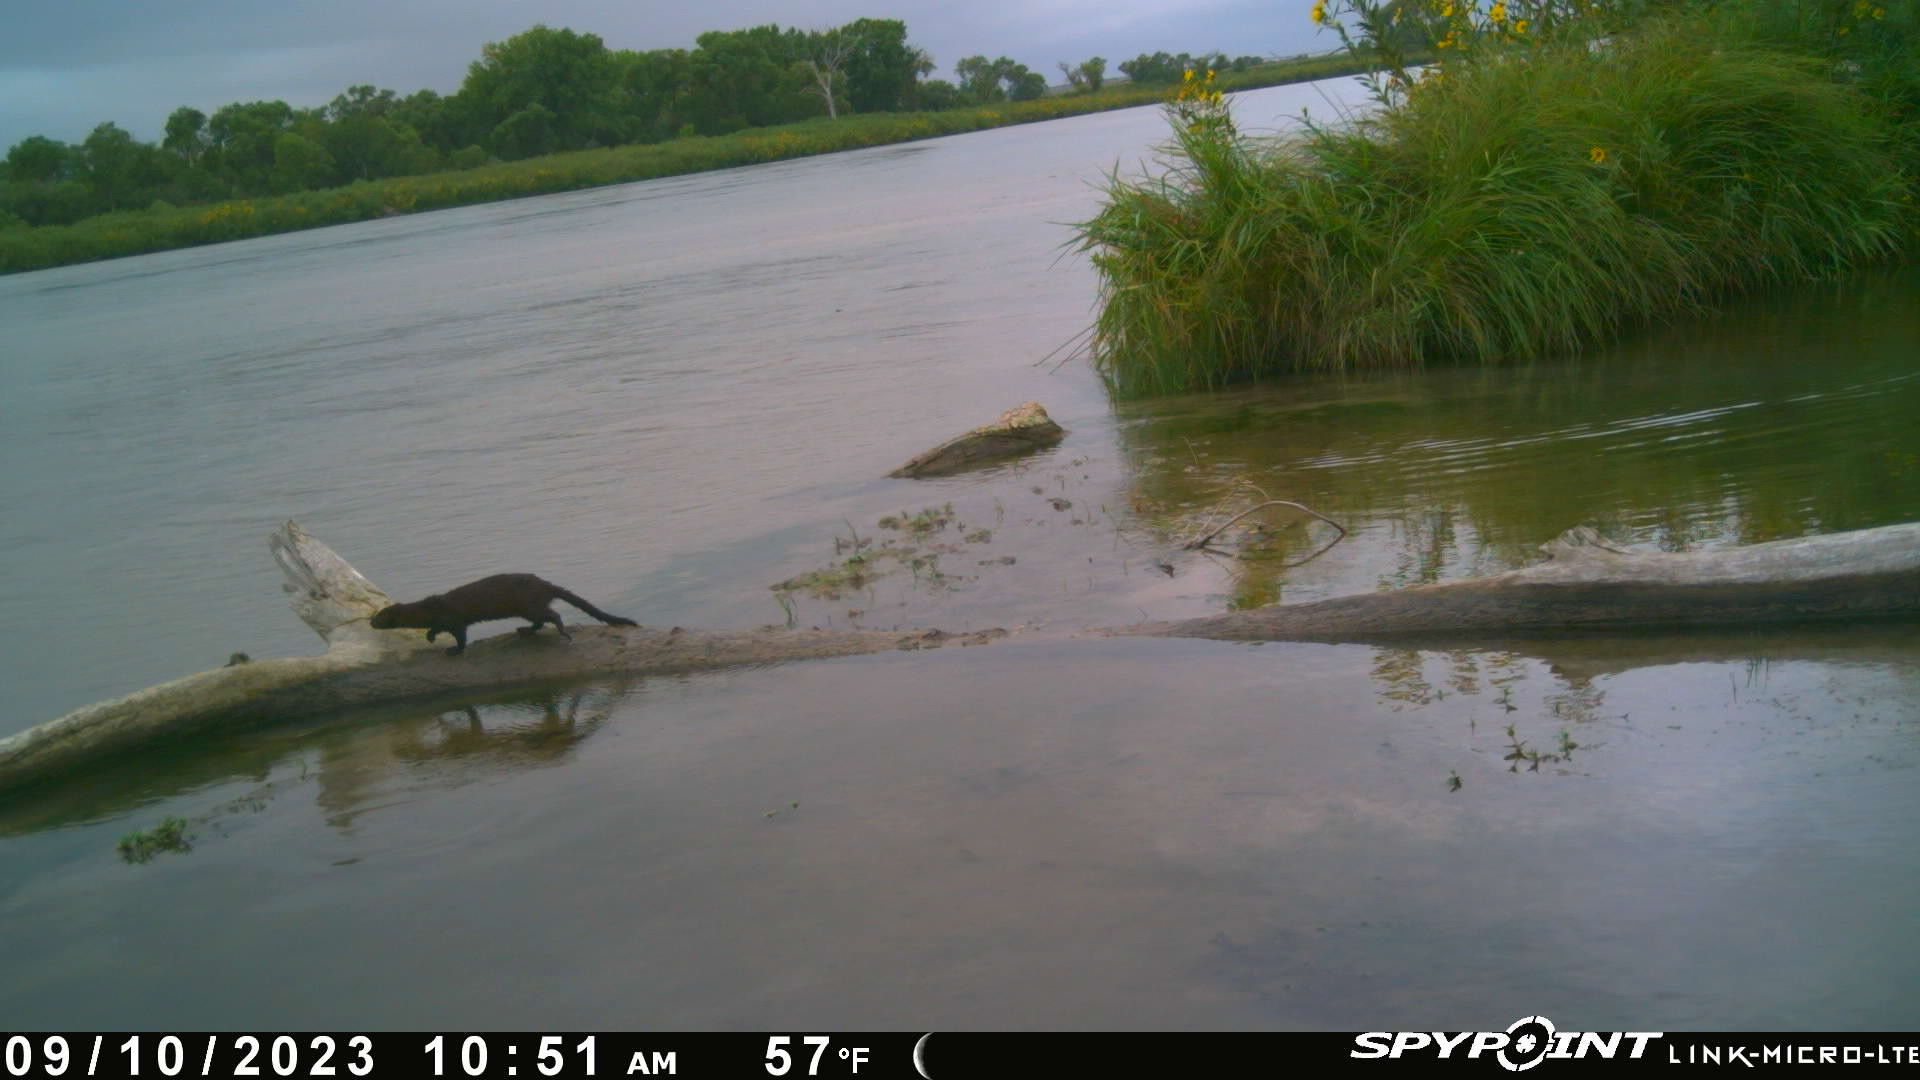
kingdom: Animalia
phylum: Chordata
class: Mammalia
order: Carnivora
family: Mustelidae
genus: Mustela
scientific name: Mustela
